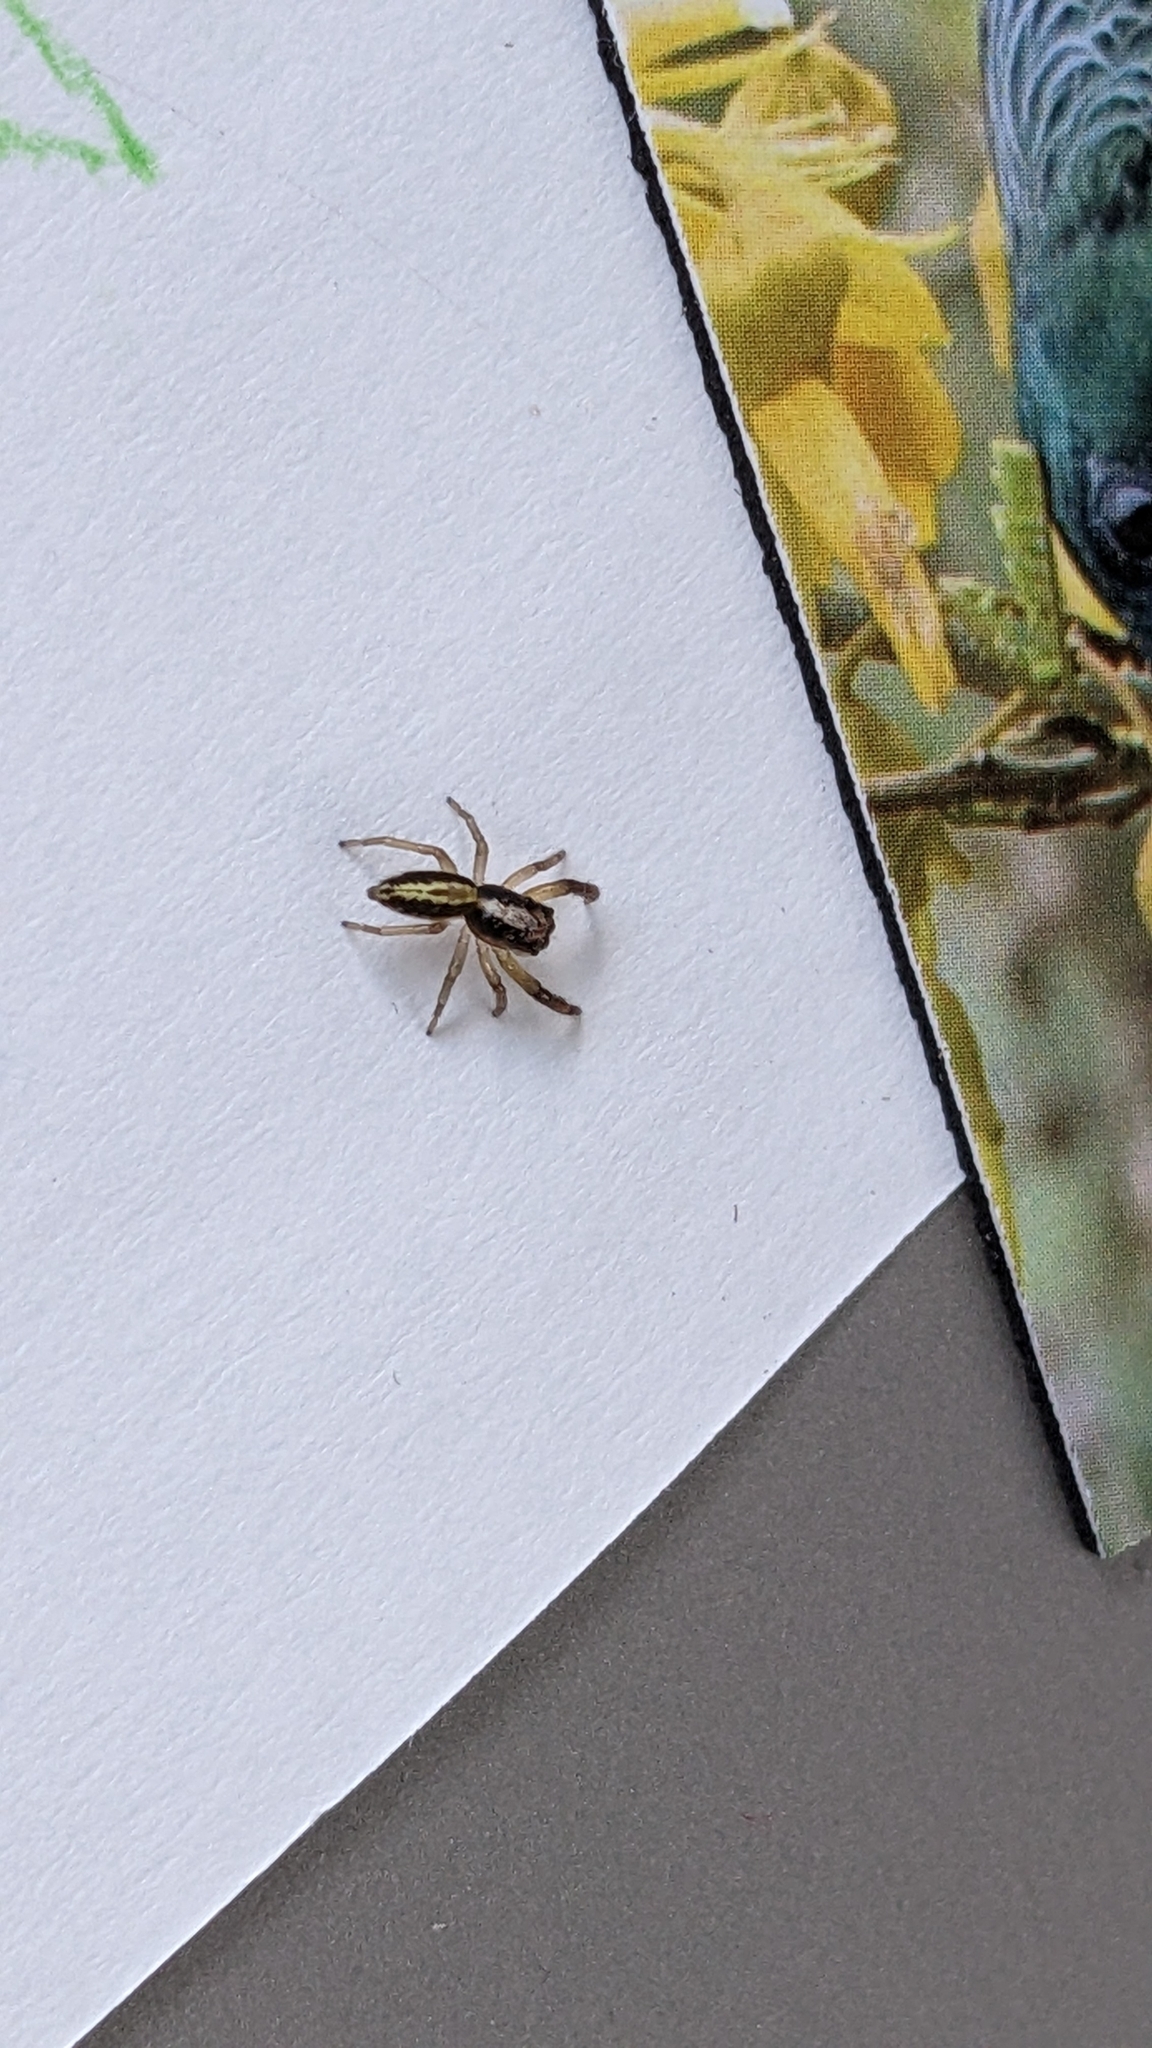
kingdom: Animalia
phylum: Arthropoda
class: Arachnida
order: Araneae
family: Salticidae
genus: Trite
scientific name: Trite planiceps
